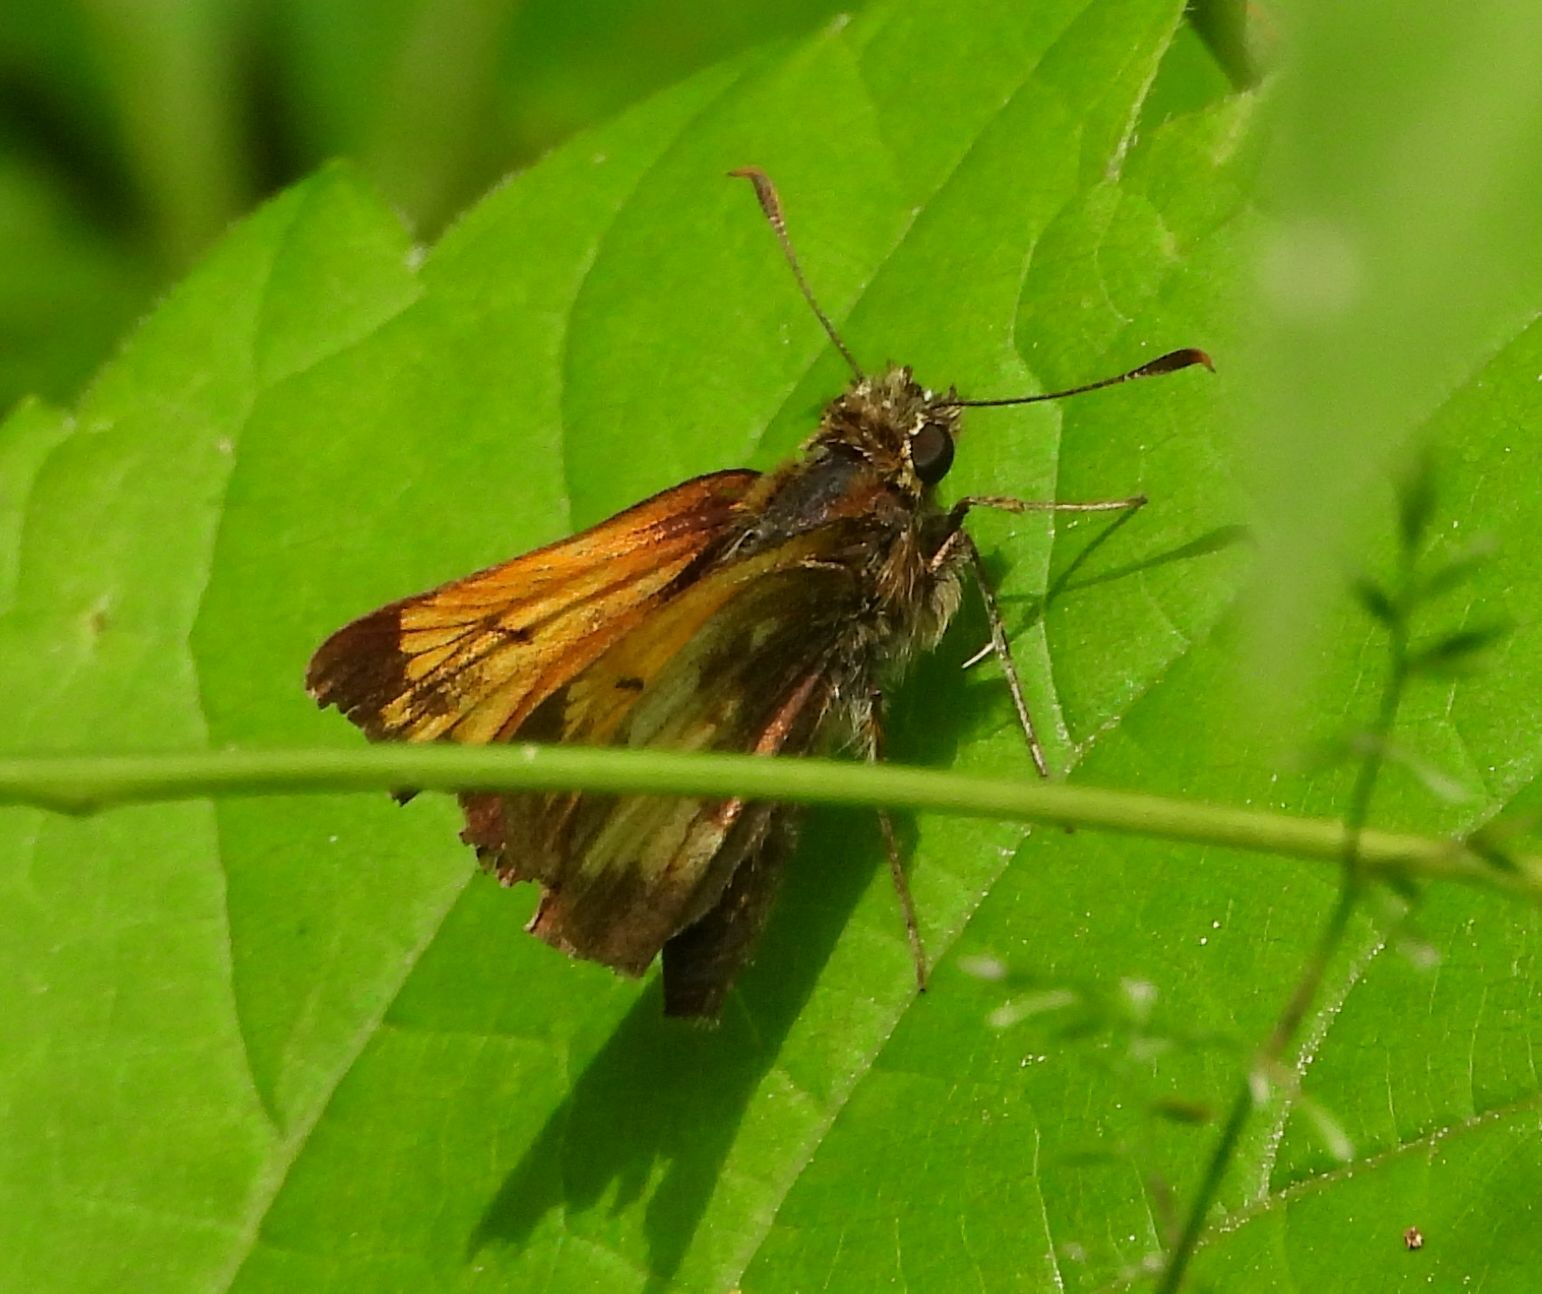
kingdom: Animalia
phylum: Arthropoda
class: Insecta
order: Lepidoptera
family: Hesperiidae
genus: Lon
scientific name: Lon hobomok
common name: Hobomok skipper
